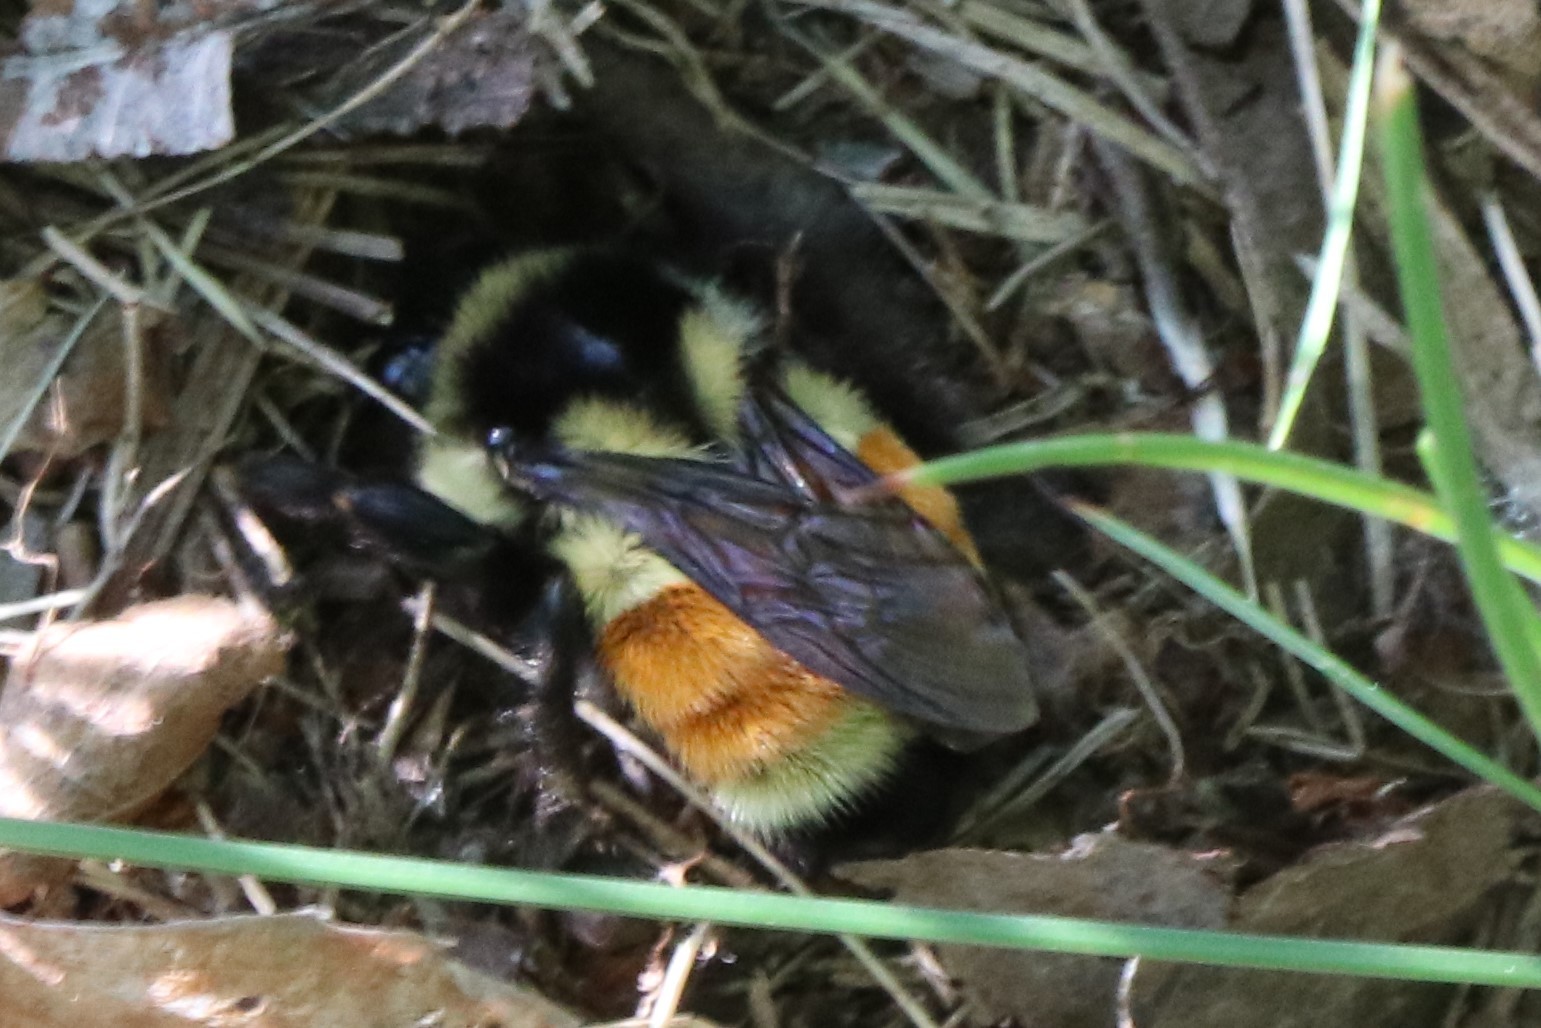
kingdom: Animalia
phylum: Arthropoda
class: Insecta
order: Hymenoptera
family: Apidae
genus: Bombus
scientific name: Bombus ternarius
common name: Tri-colored bumble bee
